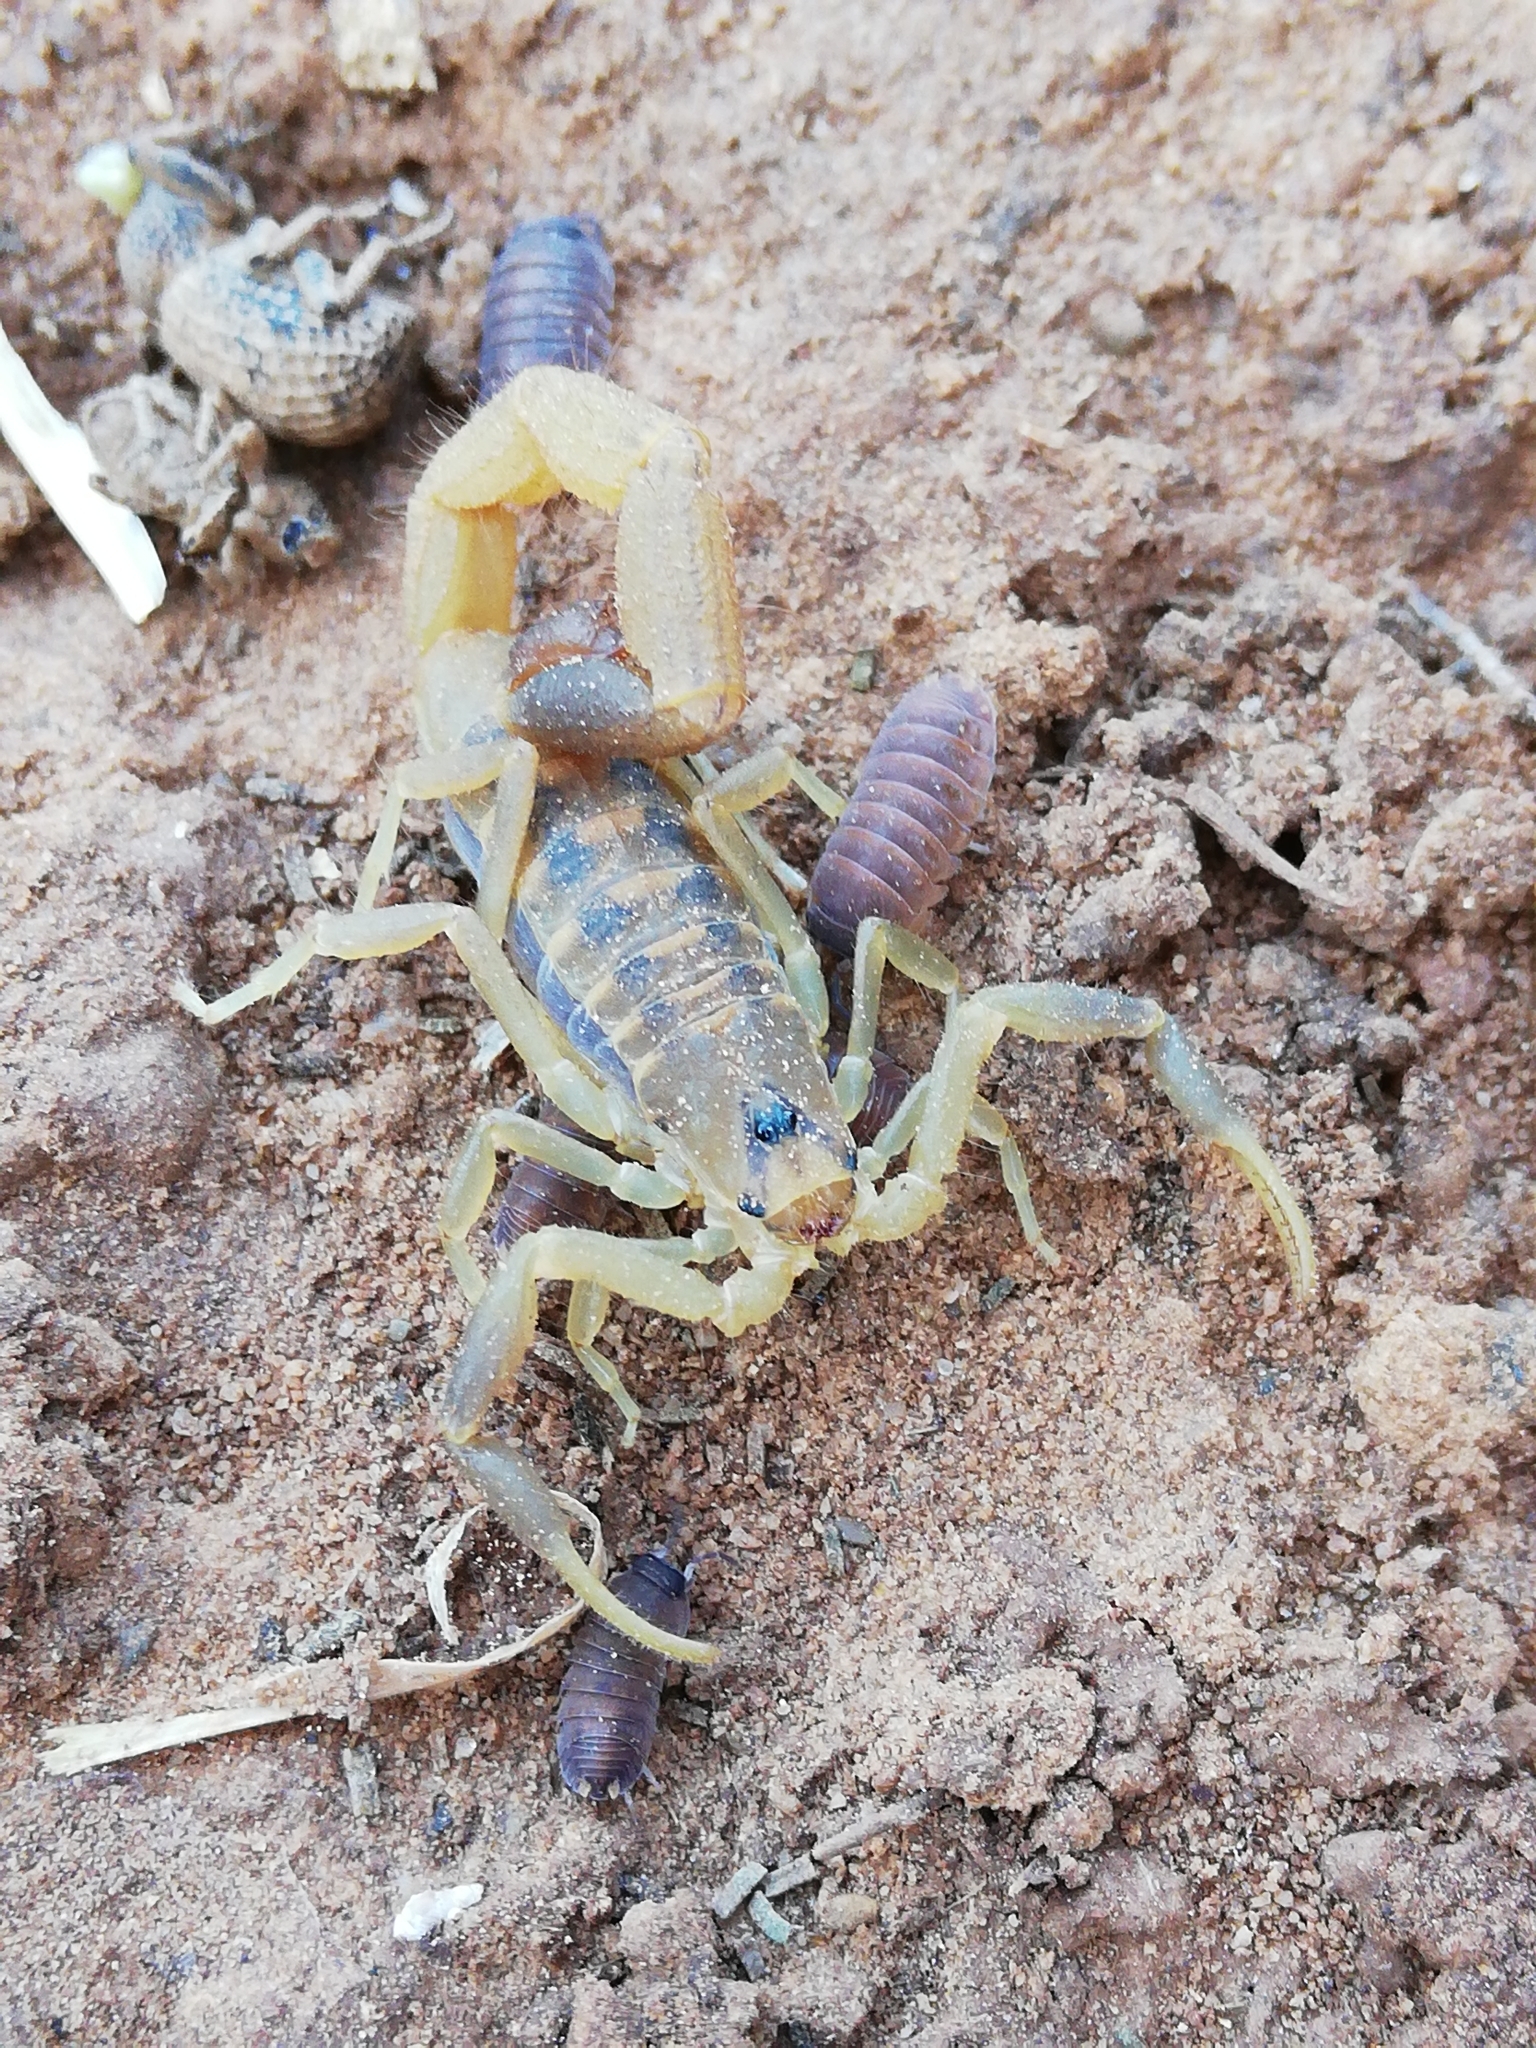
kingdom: Animalia
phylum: Arthropoda
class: Arachnida
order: Scorpiones
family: Buthidae
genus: Uroplectes
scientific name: Uroplectes triangulifer
